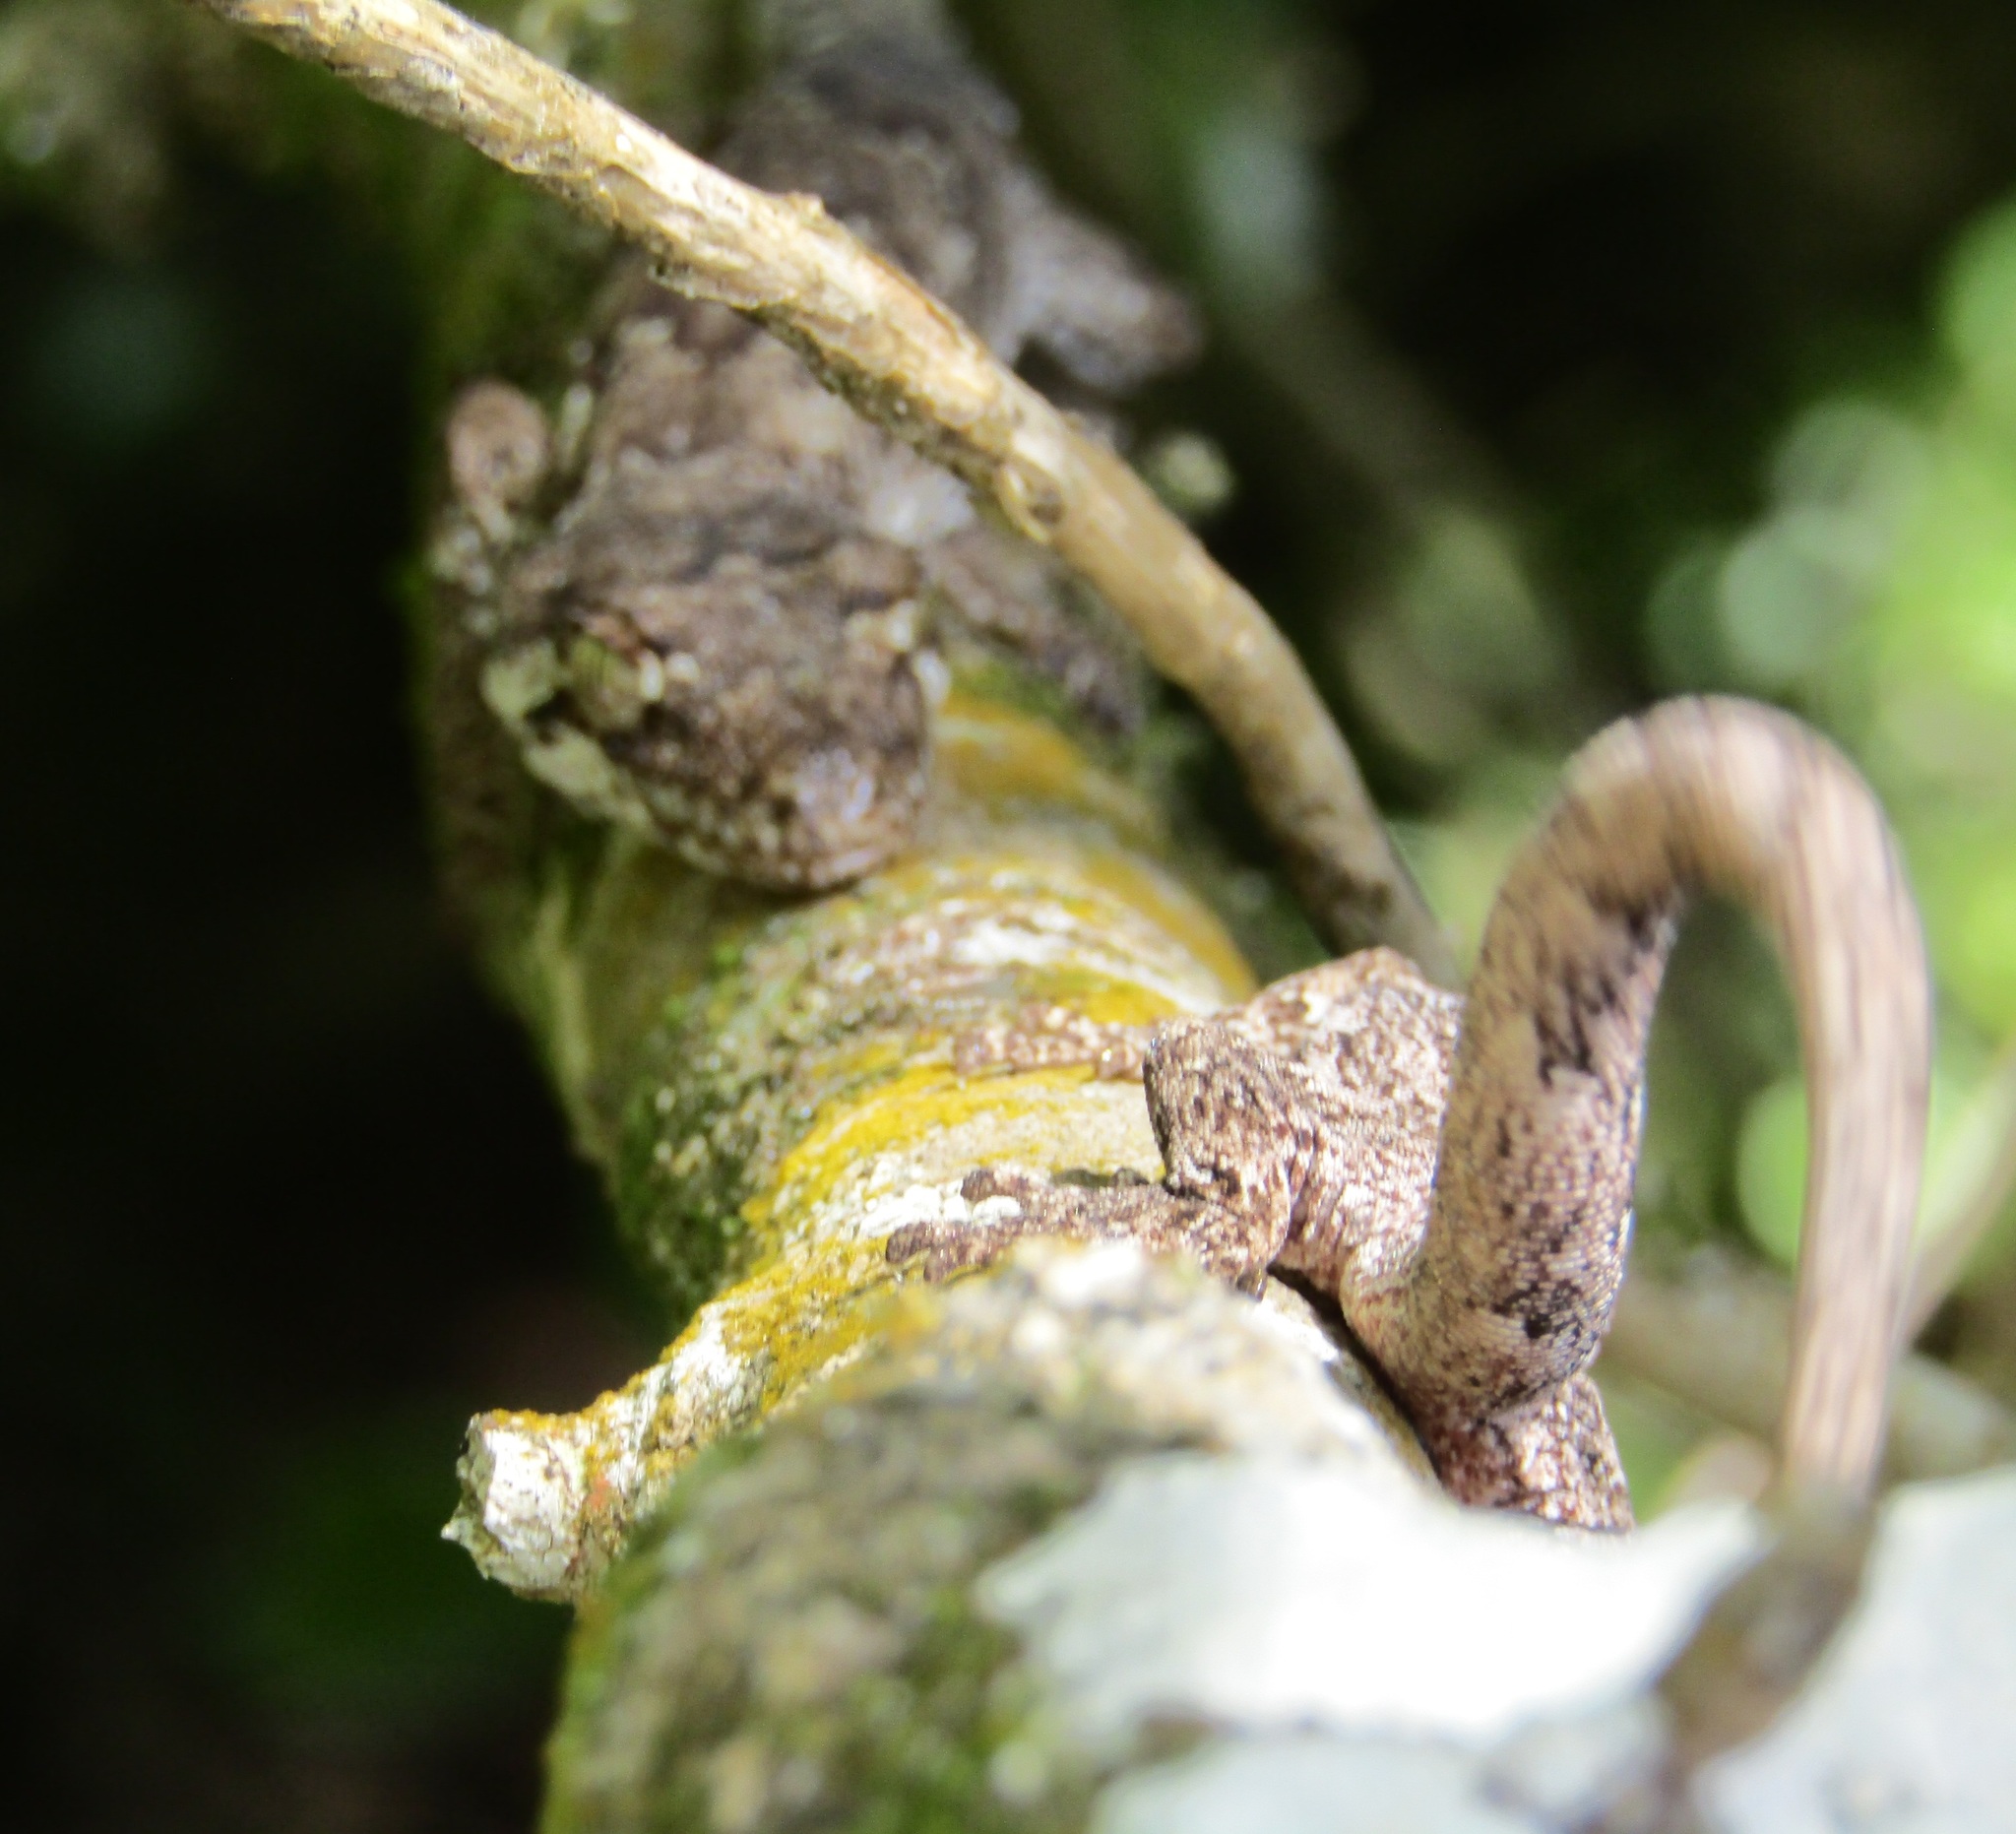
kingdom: Animalia
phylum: Chordata
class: Squamata
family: Diplodactylidae
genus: Mokopirirakau
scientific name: Mokopirirakau
